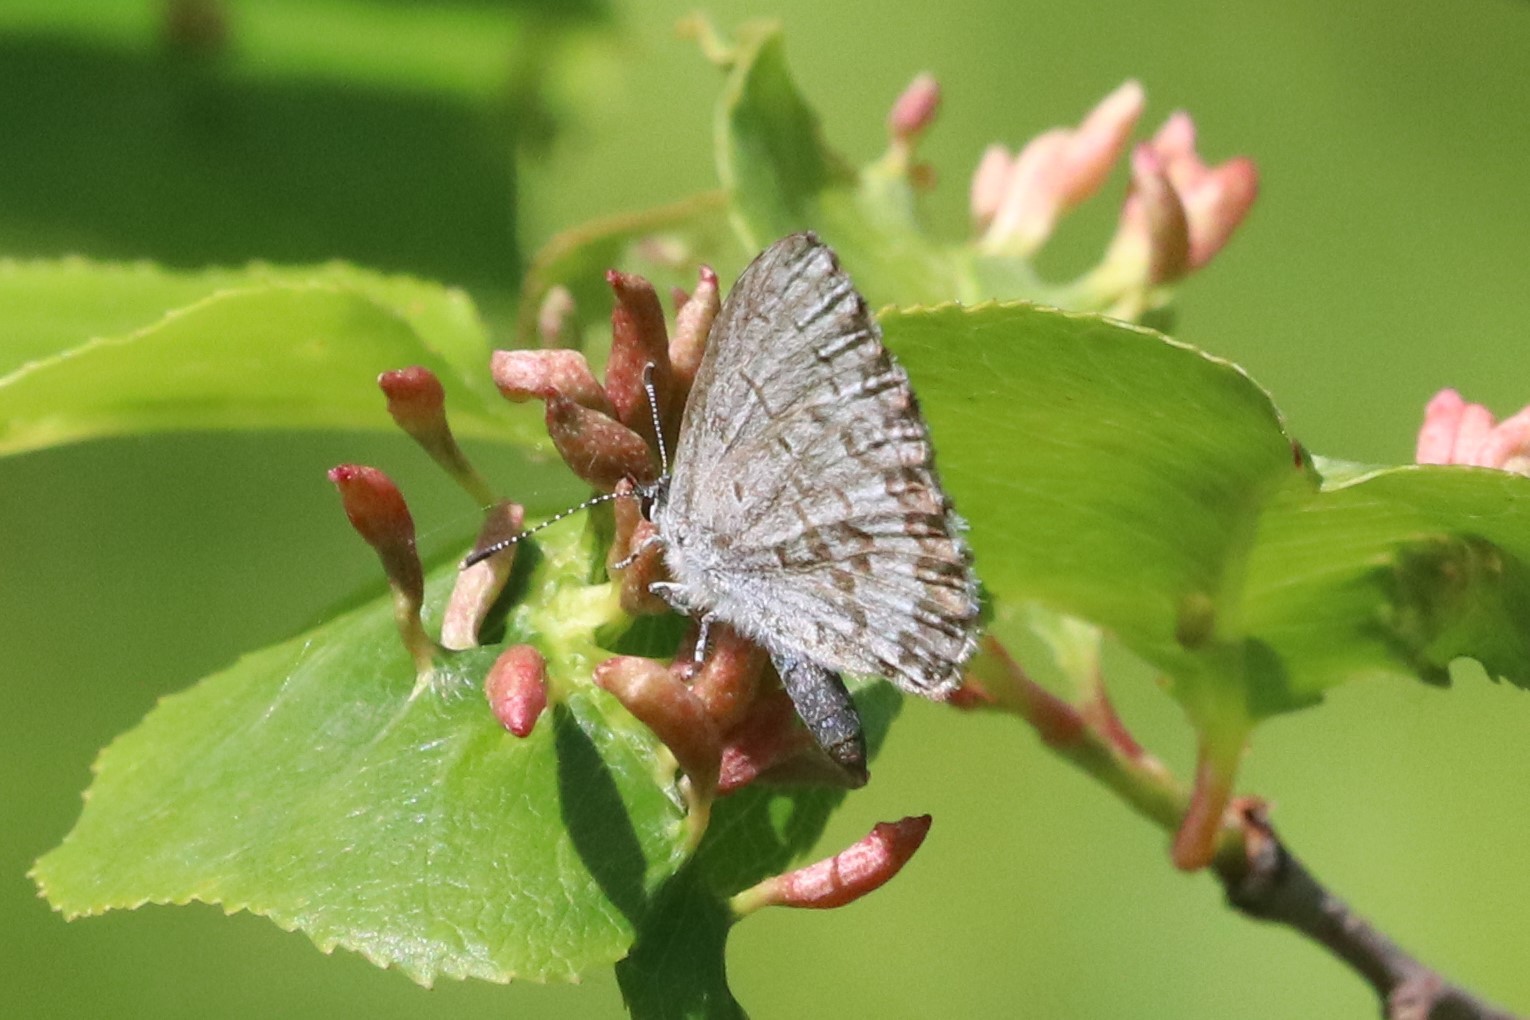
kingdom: Animalia
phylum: Arthropoda
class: Insecta
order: Lepidoptera
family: Lycaenidae
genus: Celastrina
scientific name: Celastrina lucia
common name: Lucia azure
